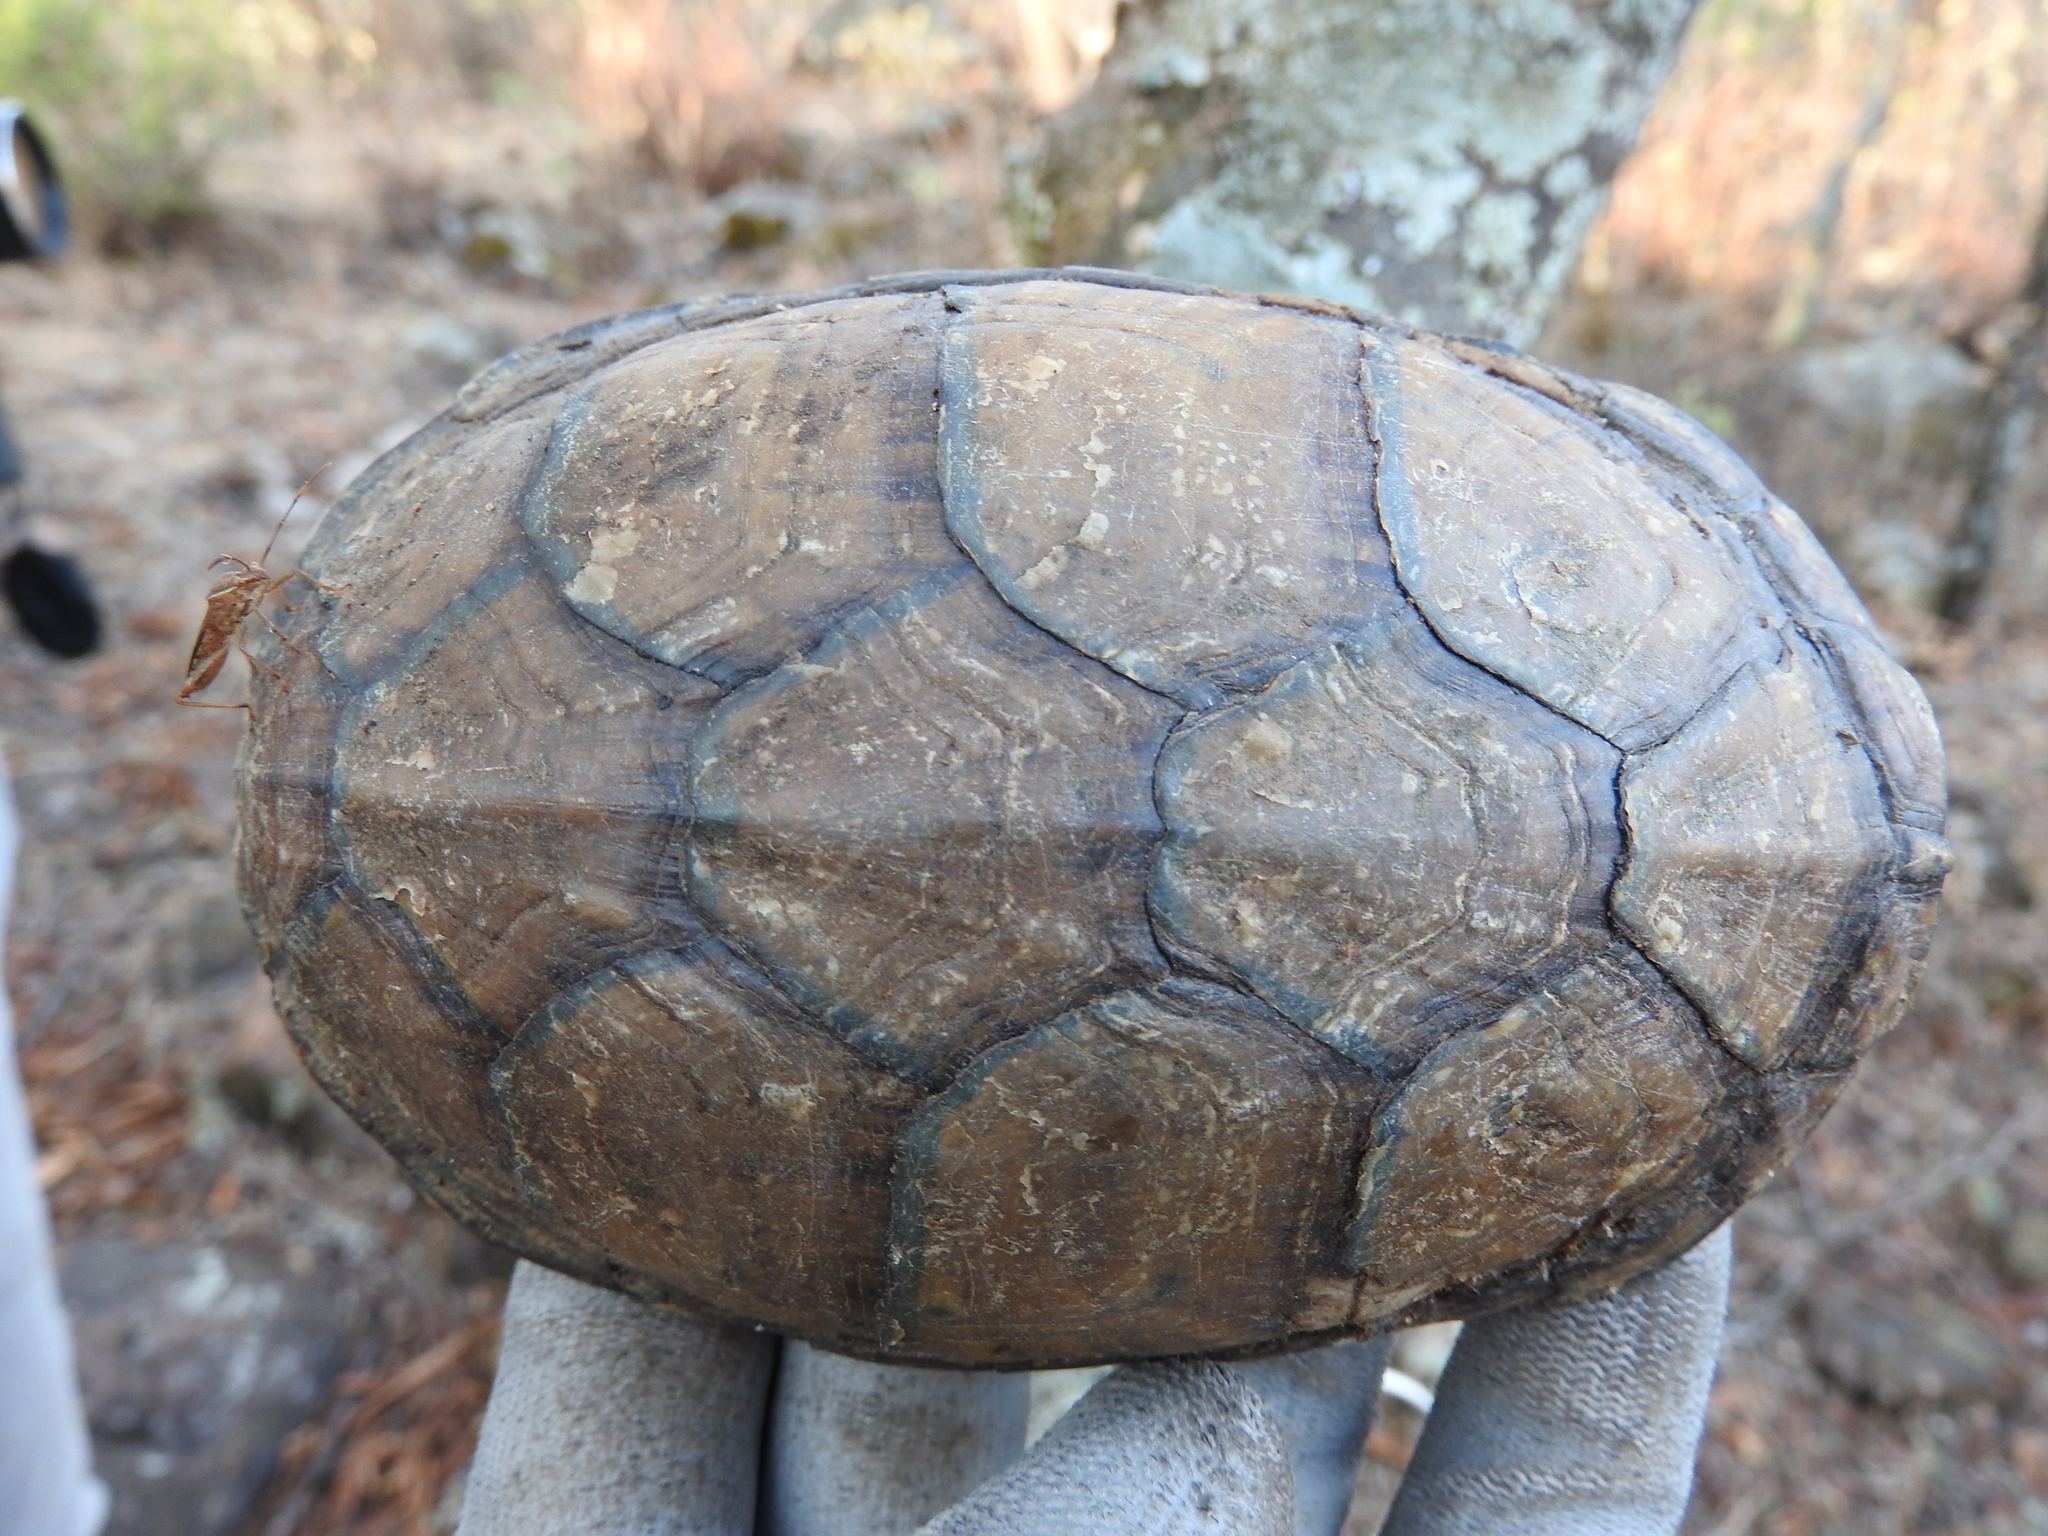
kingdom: Animalia
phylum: Chordata
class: Testudines
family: Kinosternidae
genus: Kinosternon
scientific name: Kinosternon integrum
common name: Mexican mud turtle
